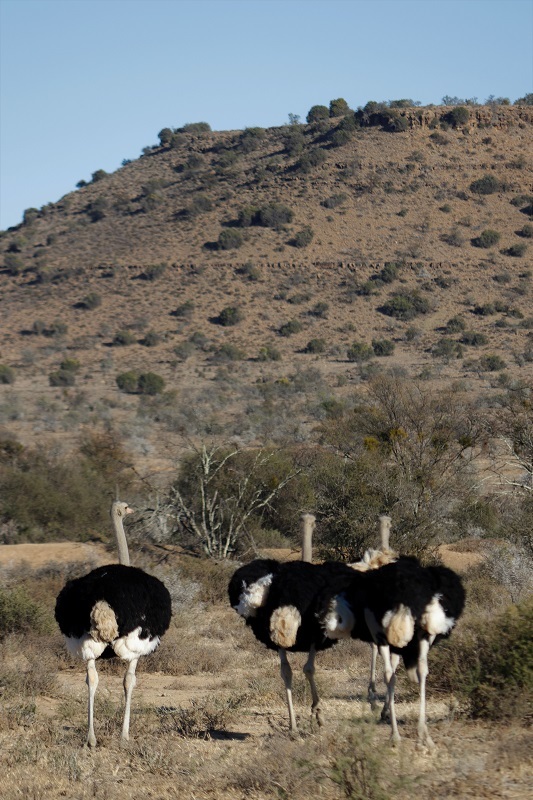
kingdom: Animalia
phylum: Chordata
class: Aves
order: Struthioniformes
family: Struthionidae
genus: Struthio
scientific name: Struthio camelus
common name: Common ostrich
